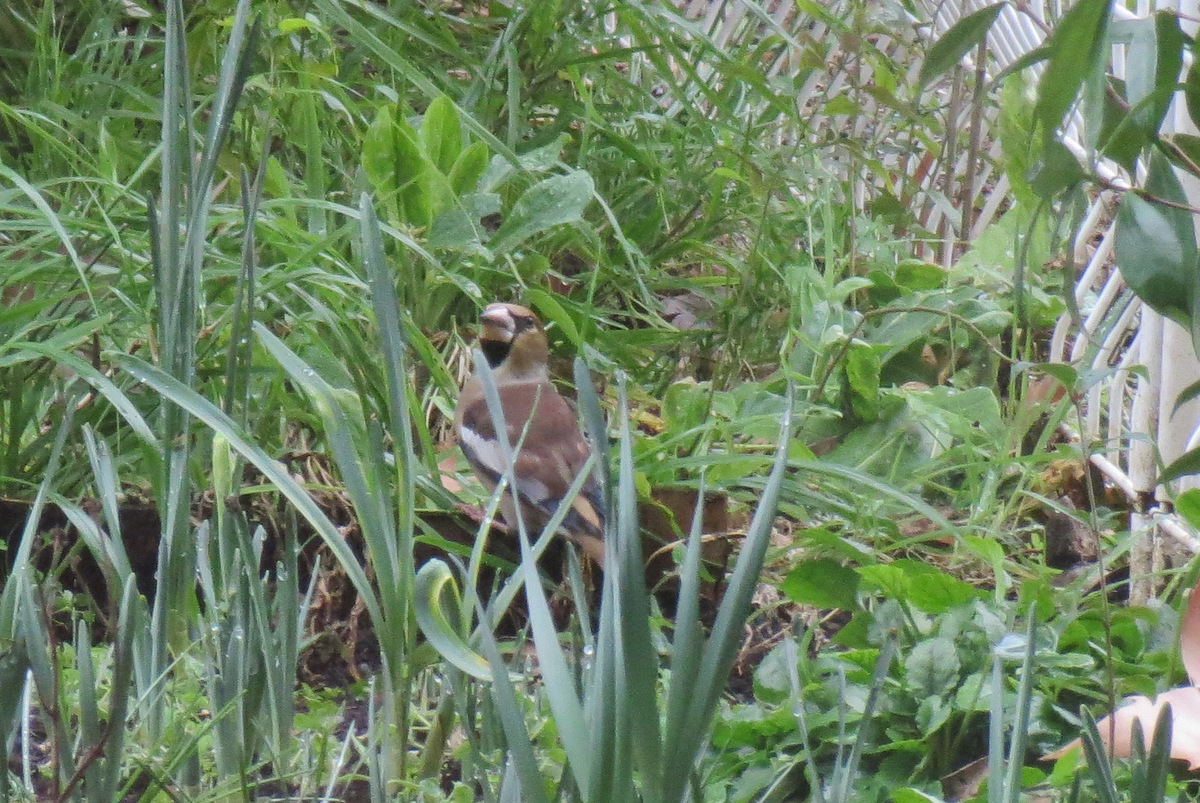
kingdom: Animalia
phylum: Chordata
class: Aves
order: Passeriformes
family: Fringillidae
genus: Coccothraustes
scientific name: Coccothraustes coccothraustes
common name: Hawfinch
